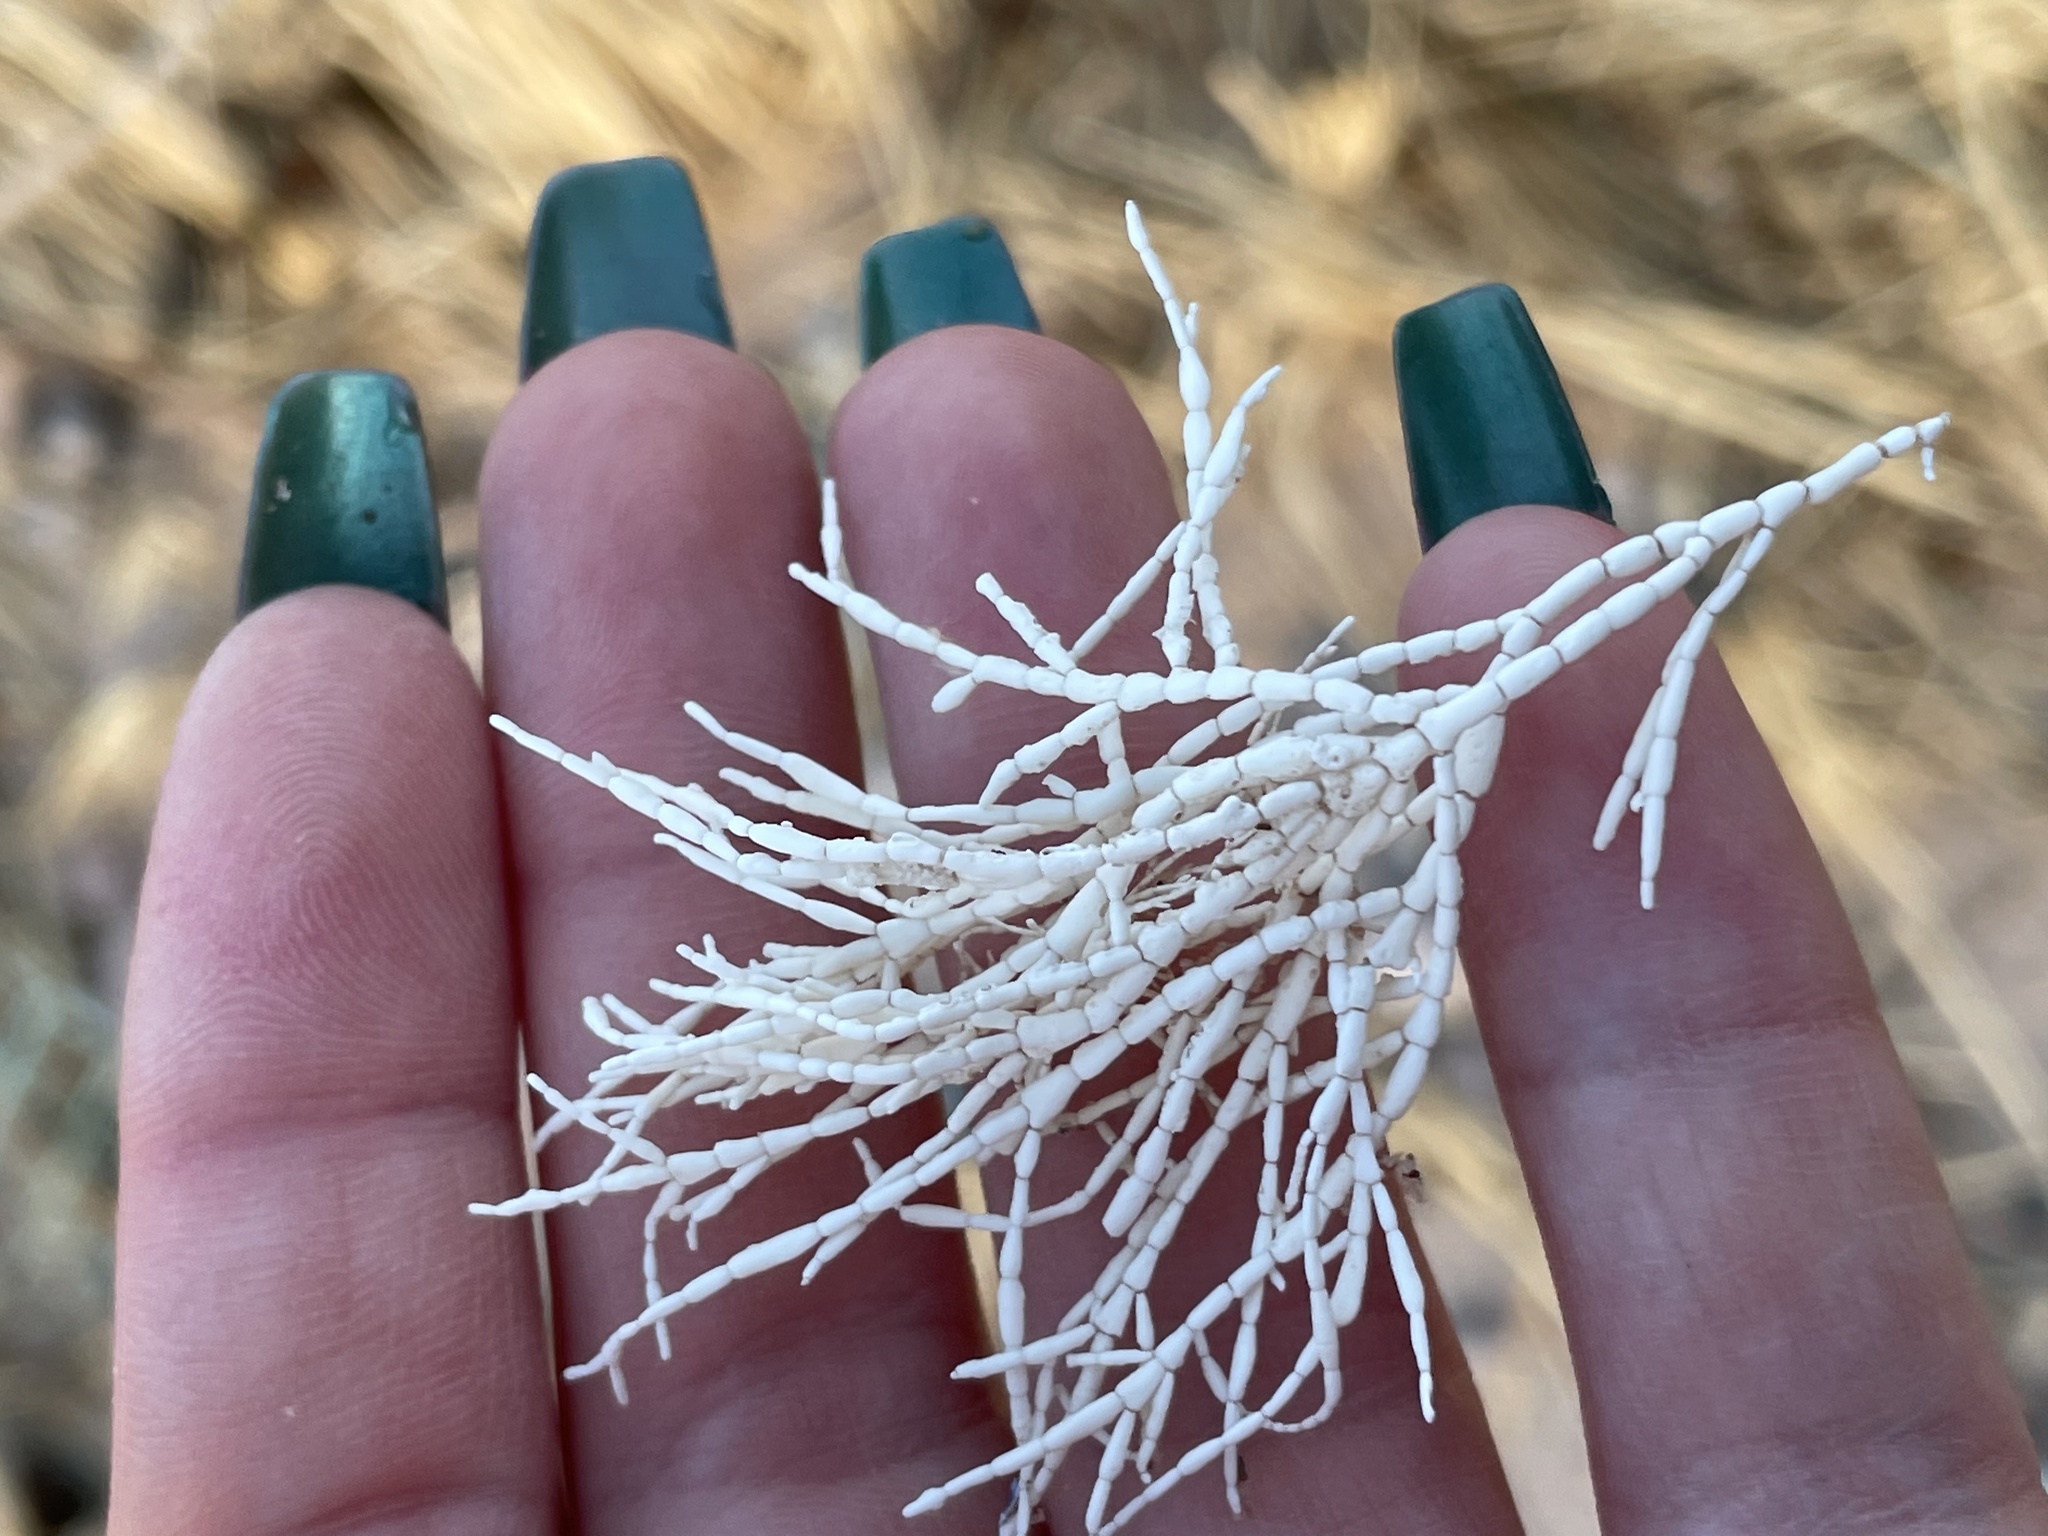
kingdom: Plantae
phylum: Rhodophyta
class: Florideophyceae
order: Corallinales
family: Corallinaceae
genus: Corallina
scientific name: Corallina officinalis
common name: Coral weed
